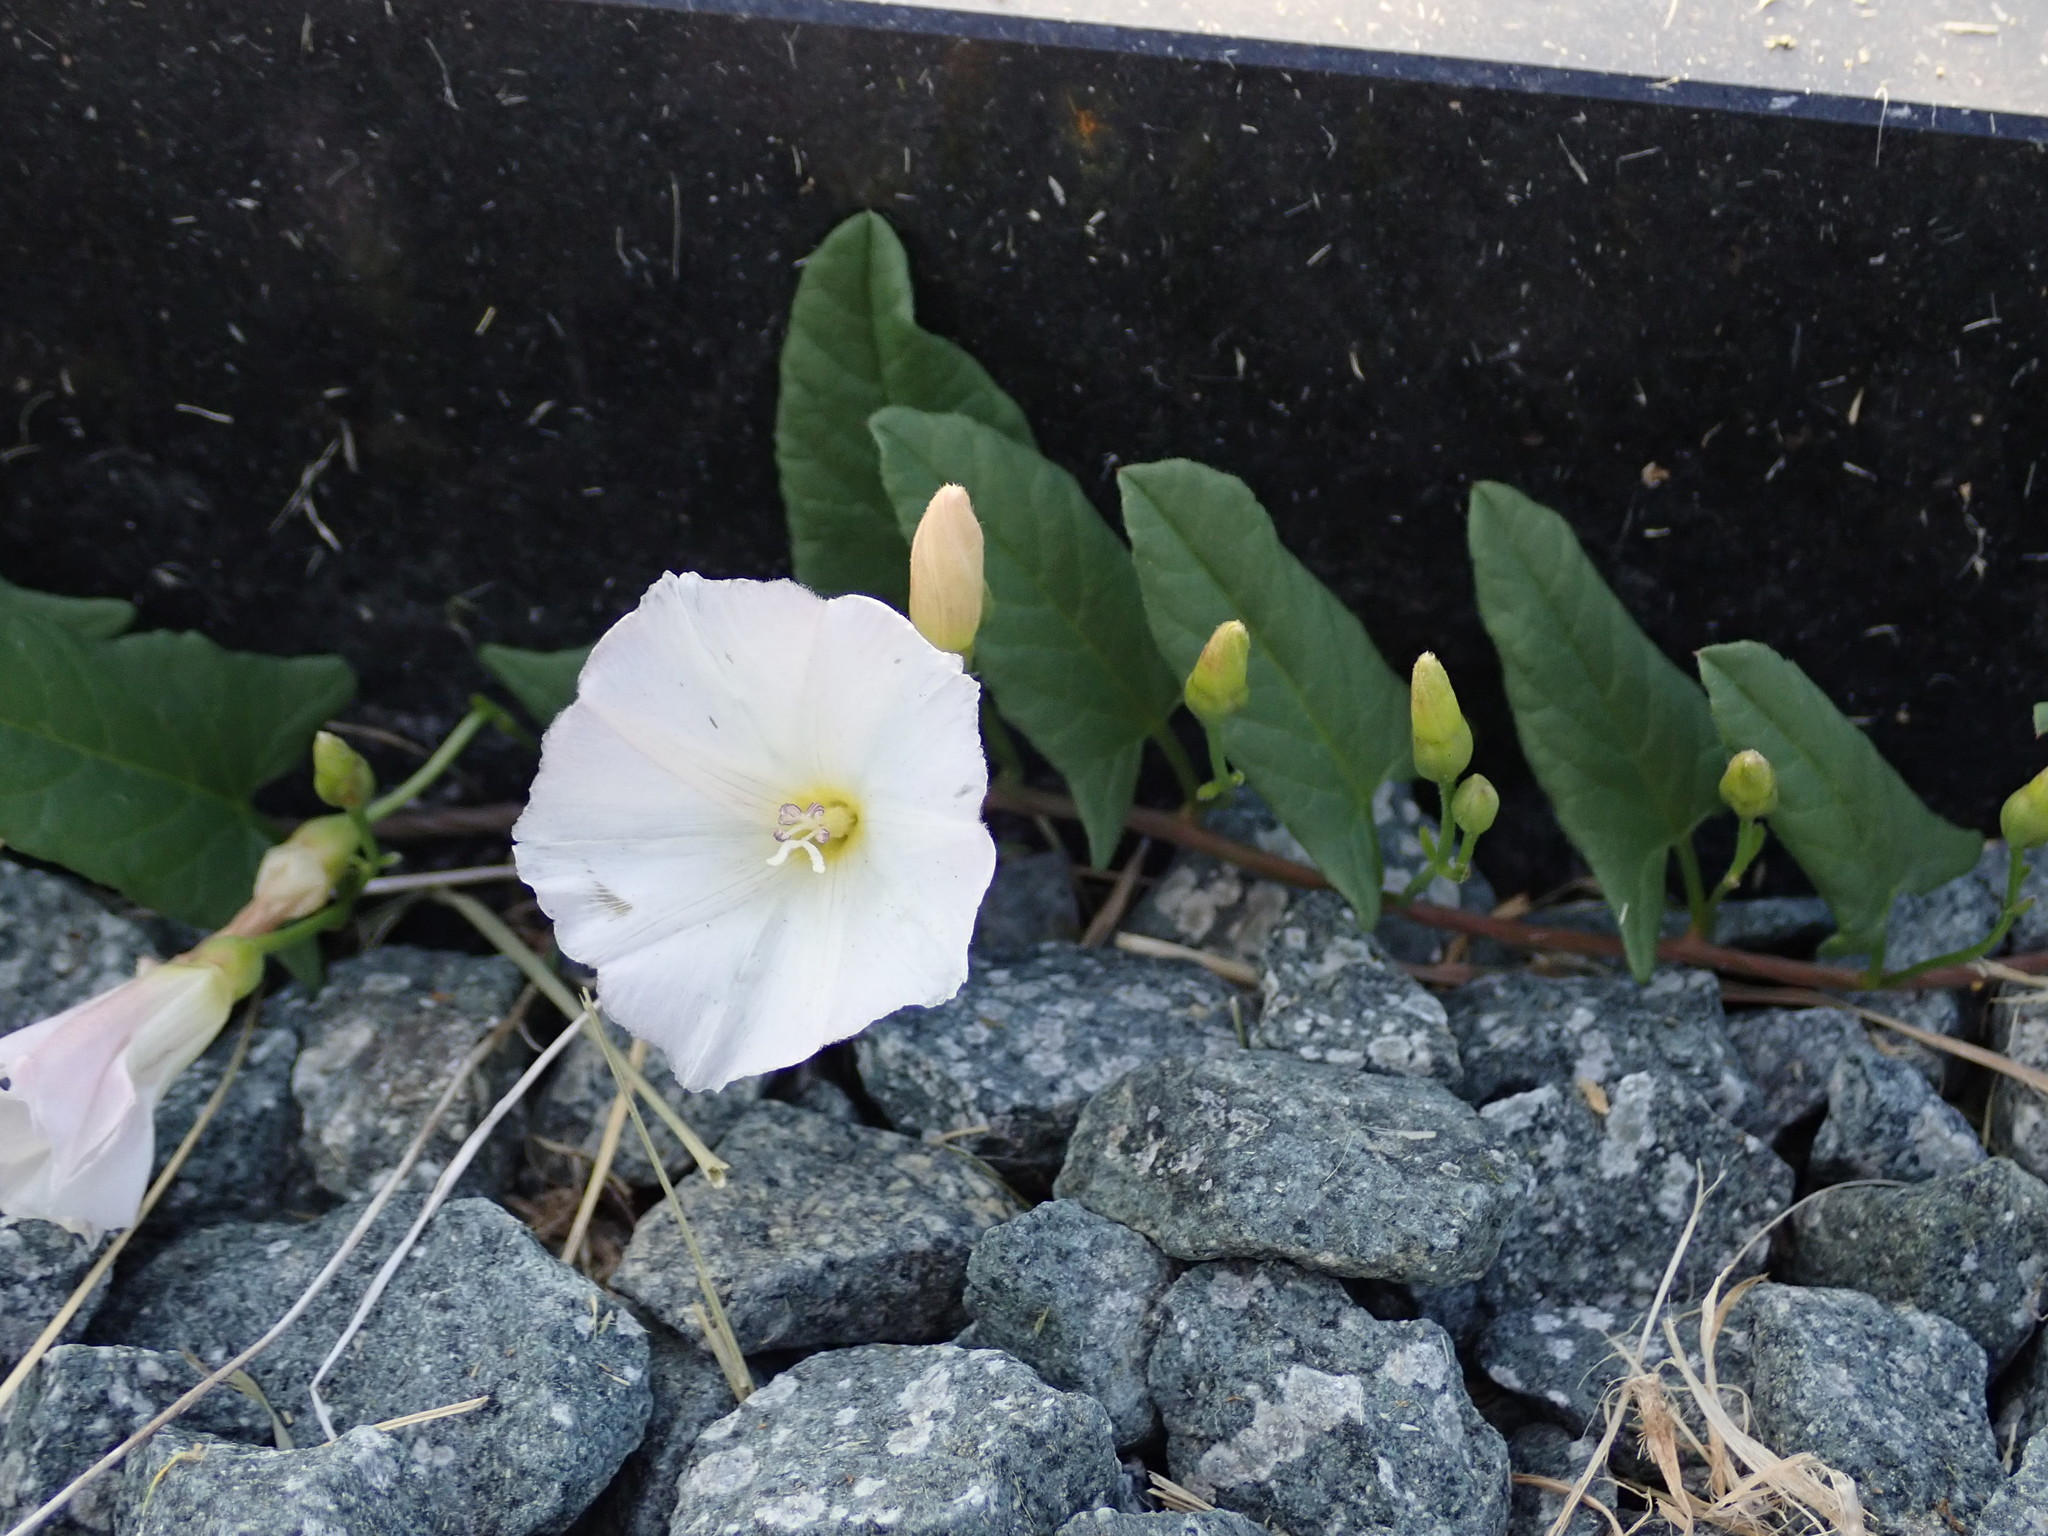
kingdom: Plantae
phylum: Tracheophyta
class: Magnoliopsida
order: Solanales
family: Convolvulaceae
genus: Convolvulus
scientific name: Convolvulus arvensis
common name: Field bindweed
